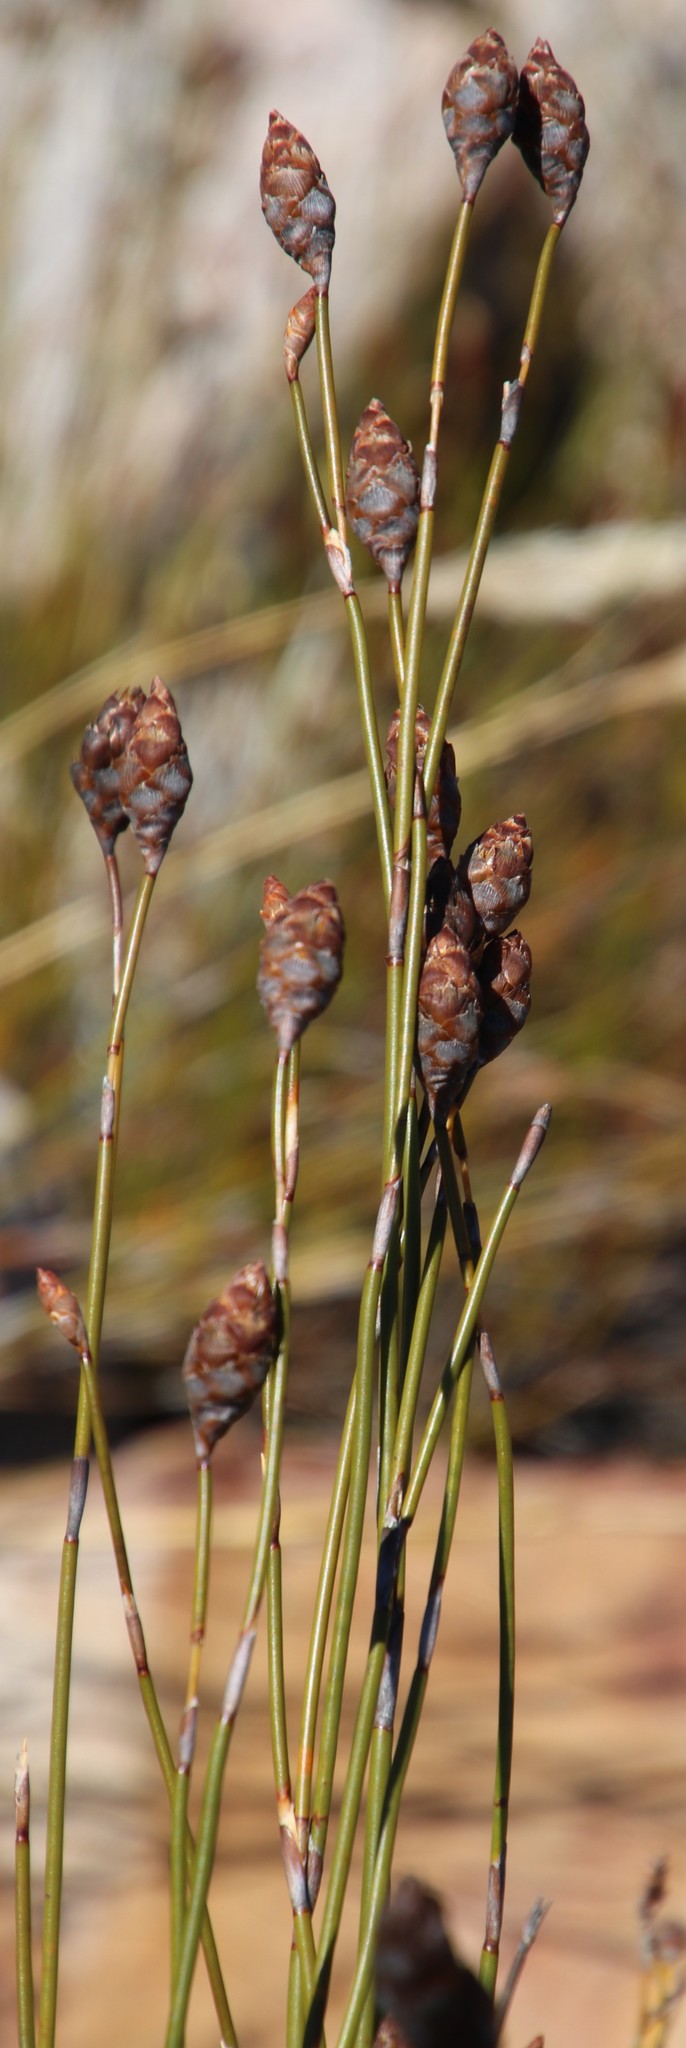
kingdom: Plantae
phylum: Tracheophyta
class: Liliopsida
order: Poales
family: Restionaceae
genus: Restio
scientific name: Restio bifurcus
